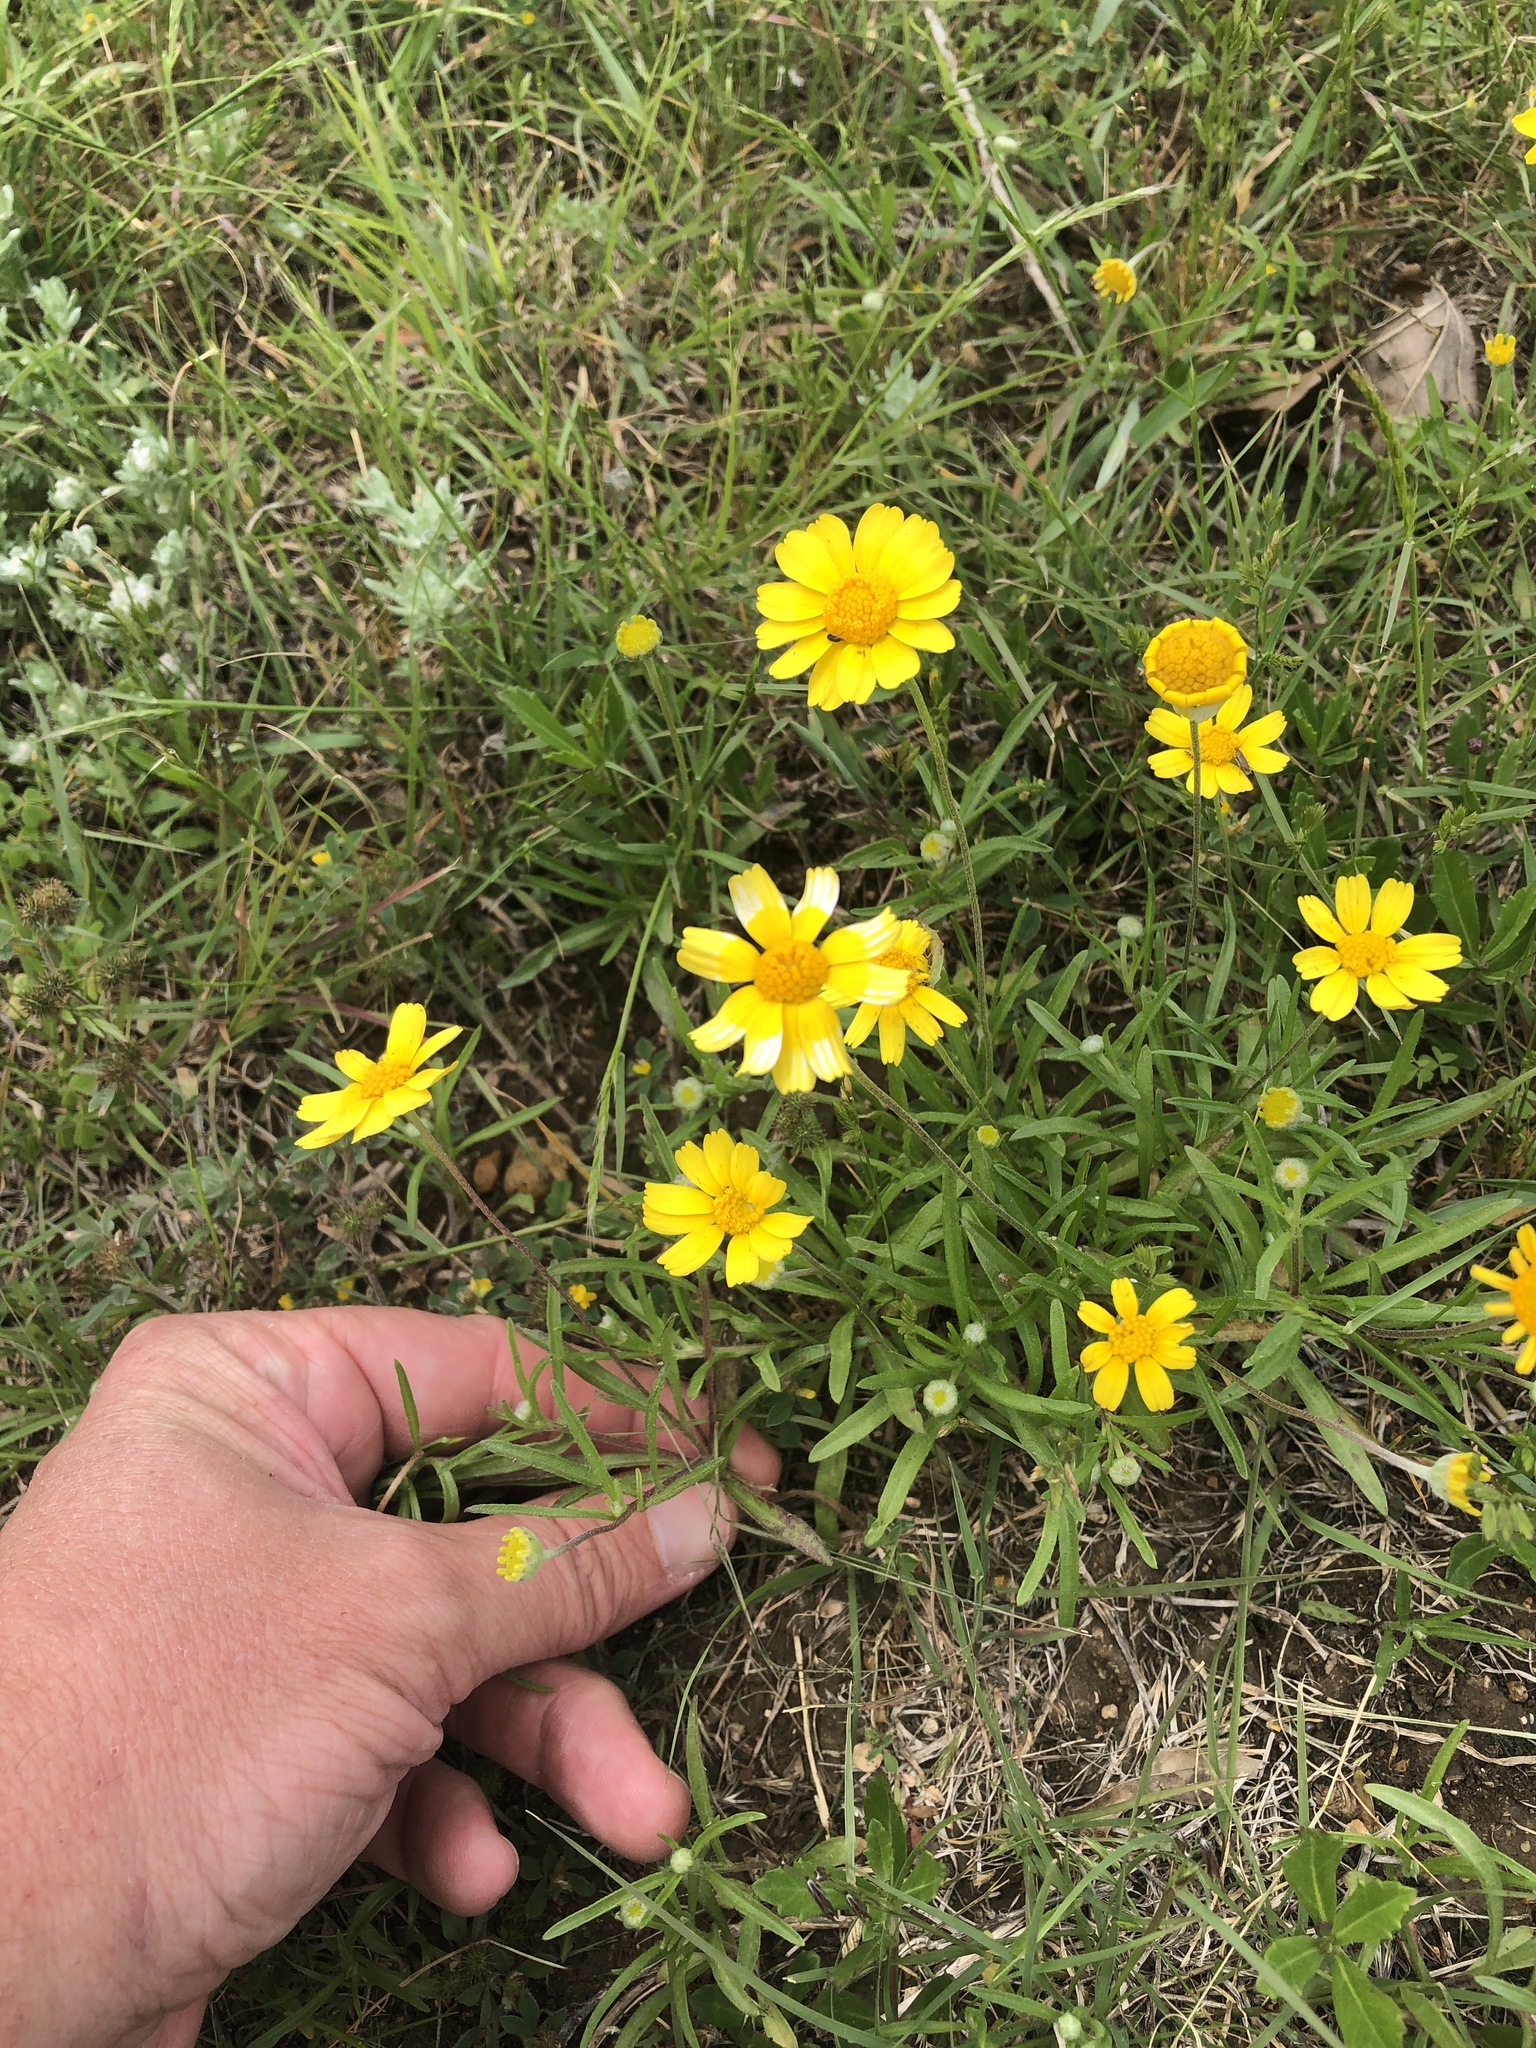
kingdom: Plantae
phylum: Tracheophyta
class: Magnoliopsida
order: Asterales
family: Asteraceae
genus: Tetraneuris
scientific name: Tetraneuris linearifolia
